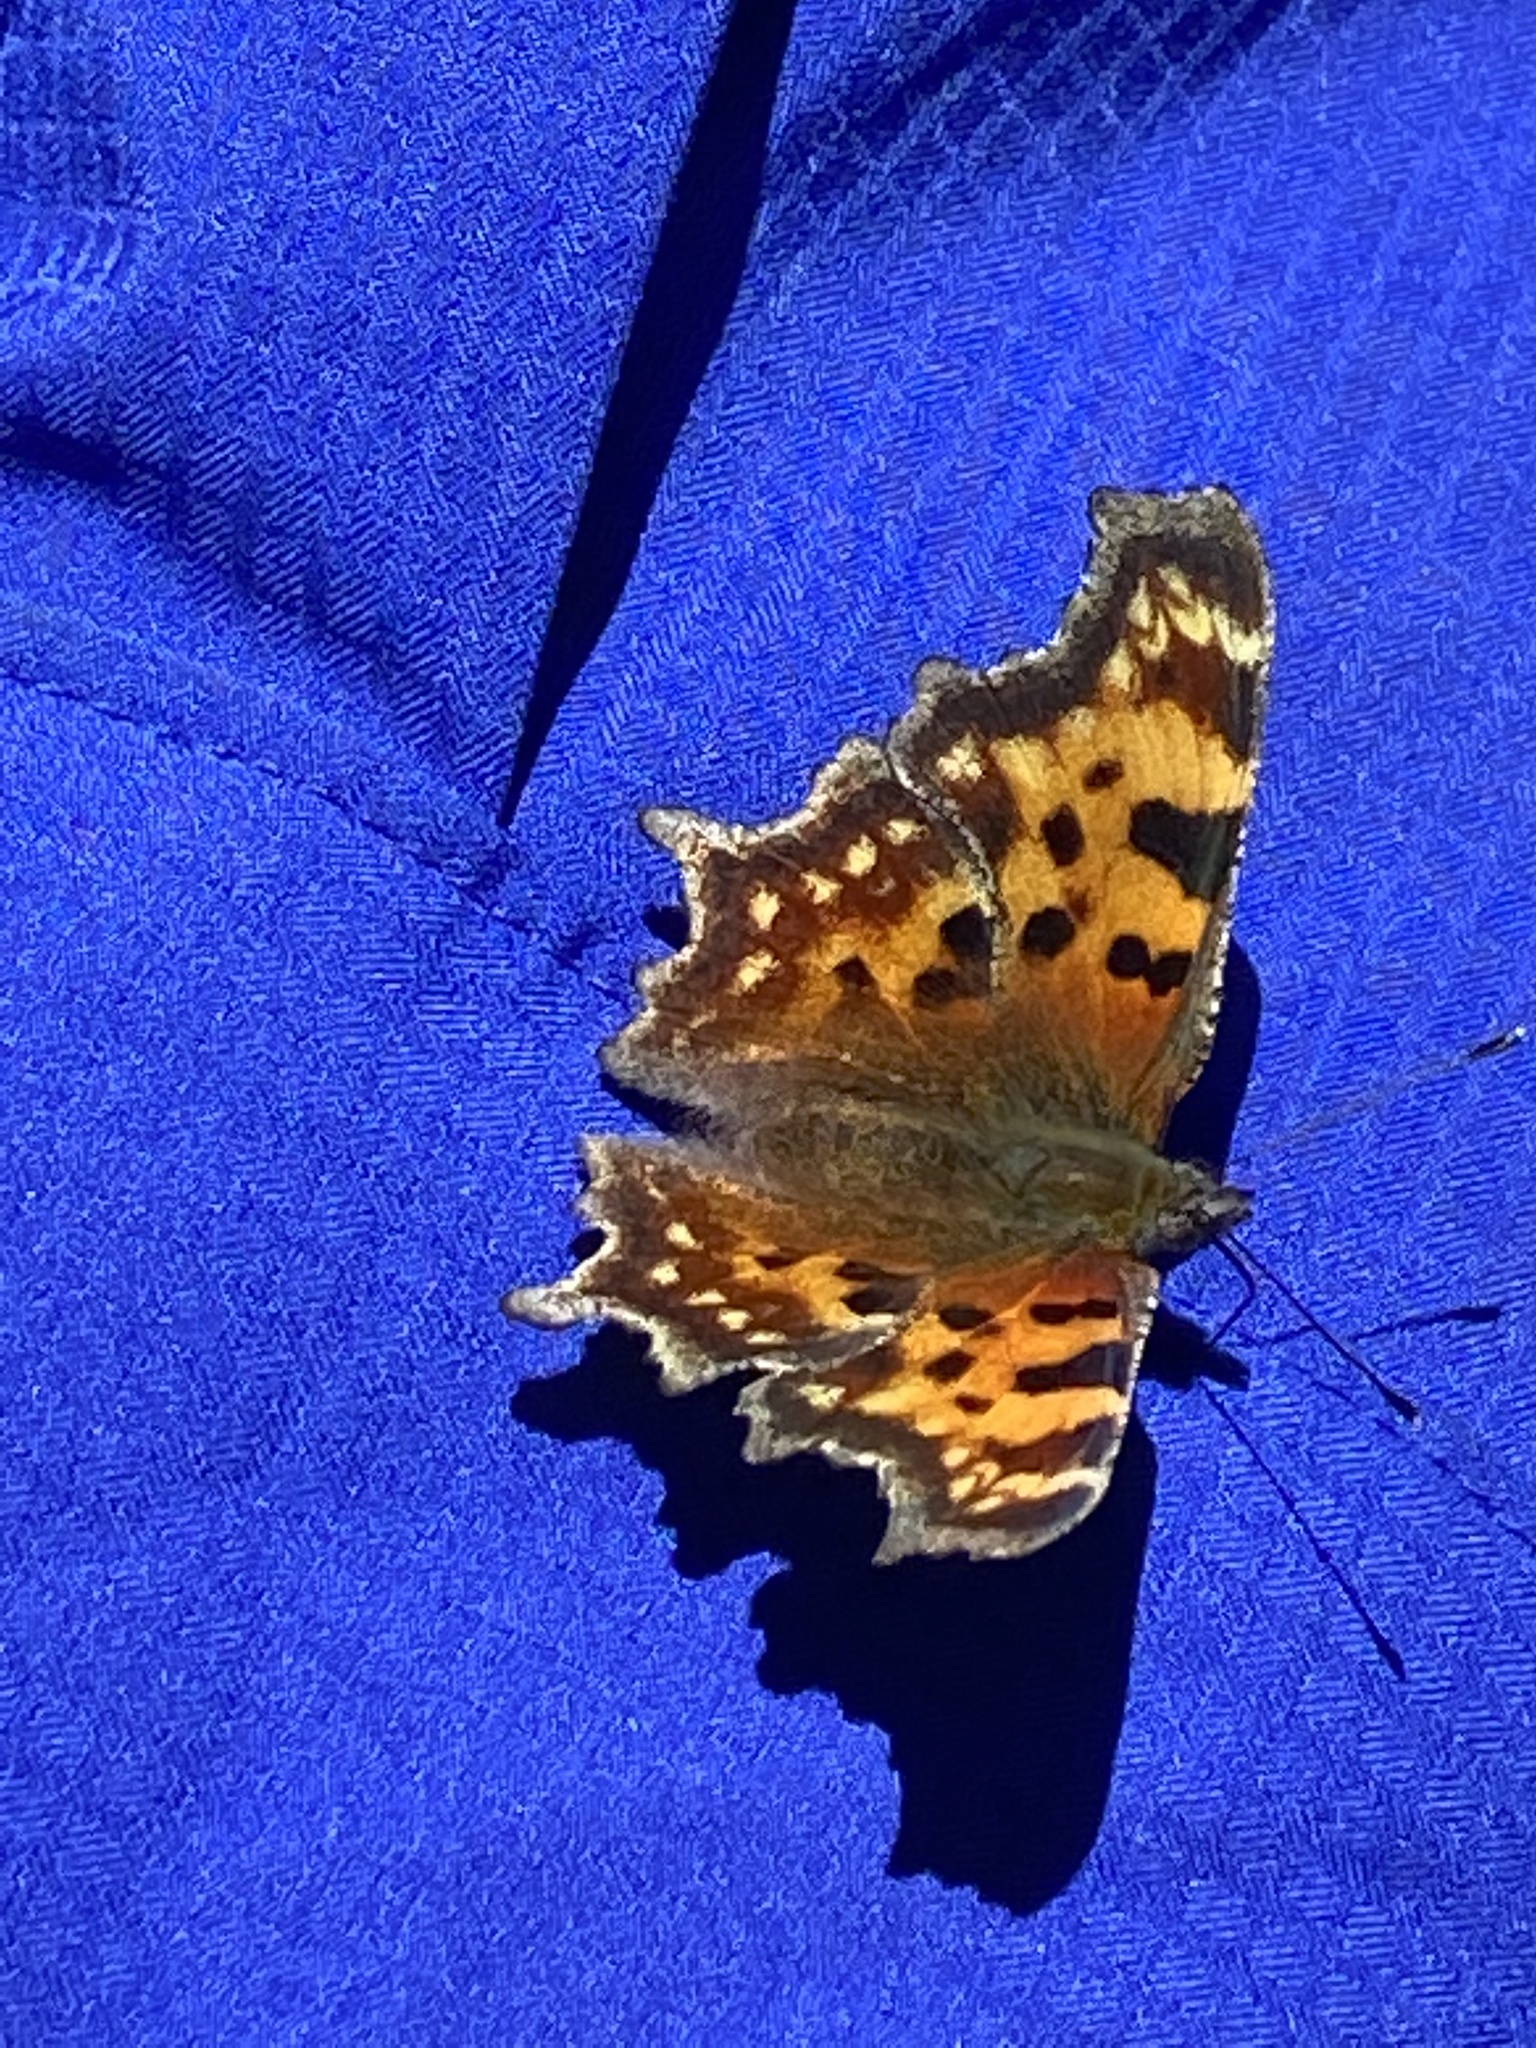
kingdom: Animalia
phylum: Arthropoda
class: Insecta
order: Lepidoptera
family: Nymphalidae
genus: Polygonia
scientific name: Polygonia faunus
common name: Green comma
